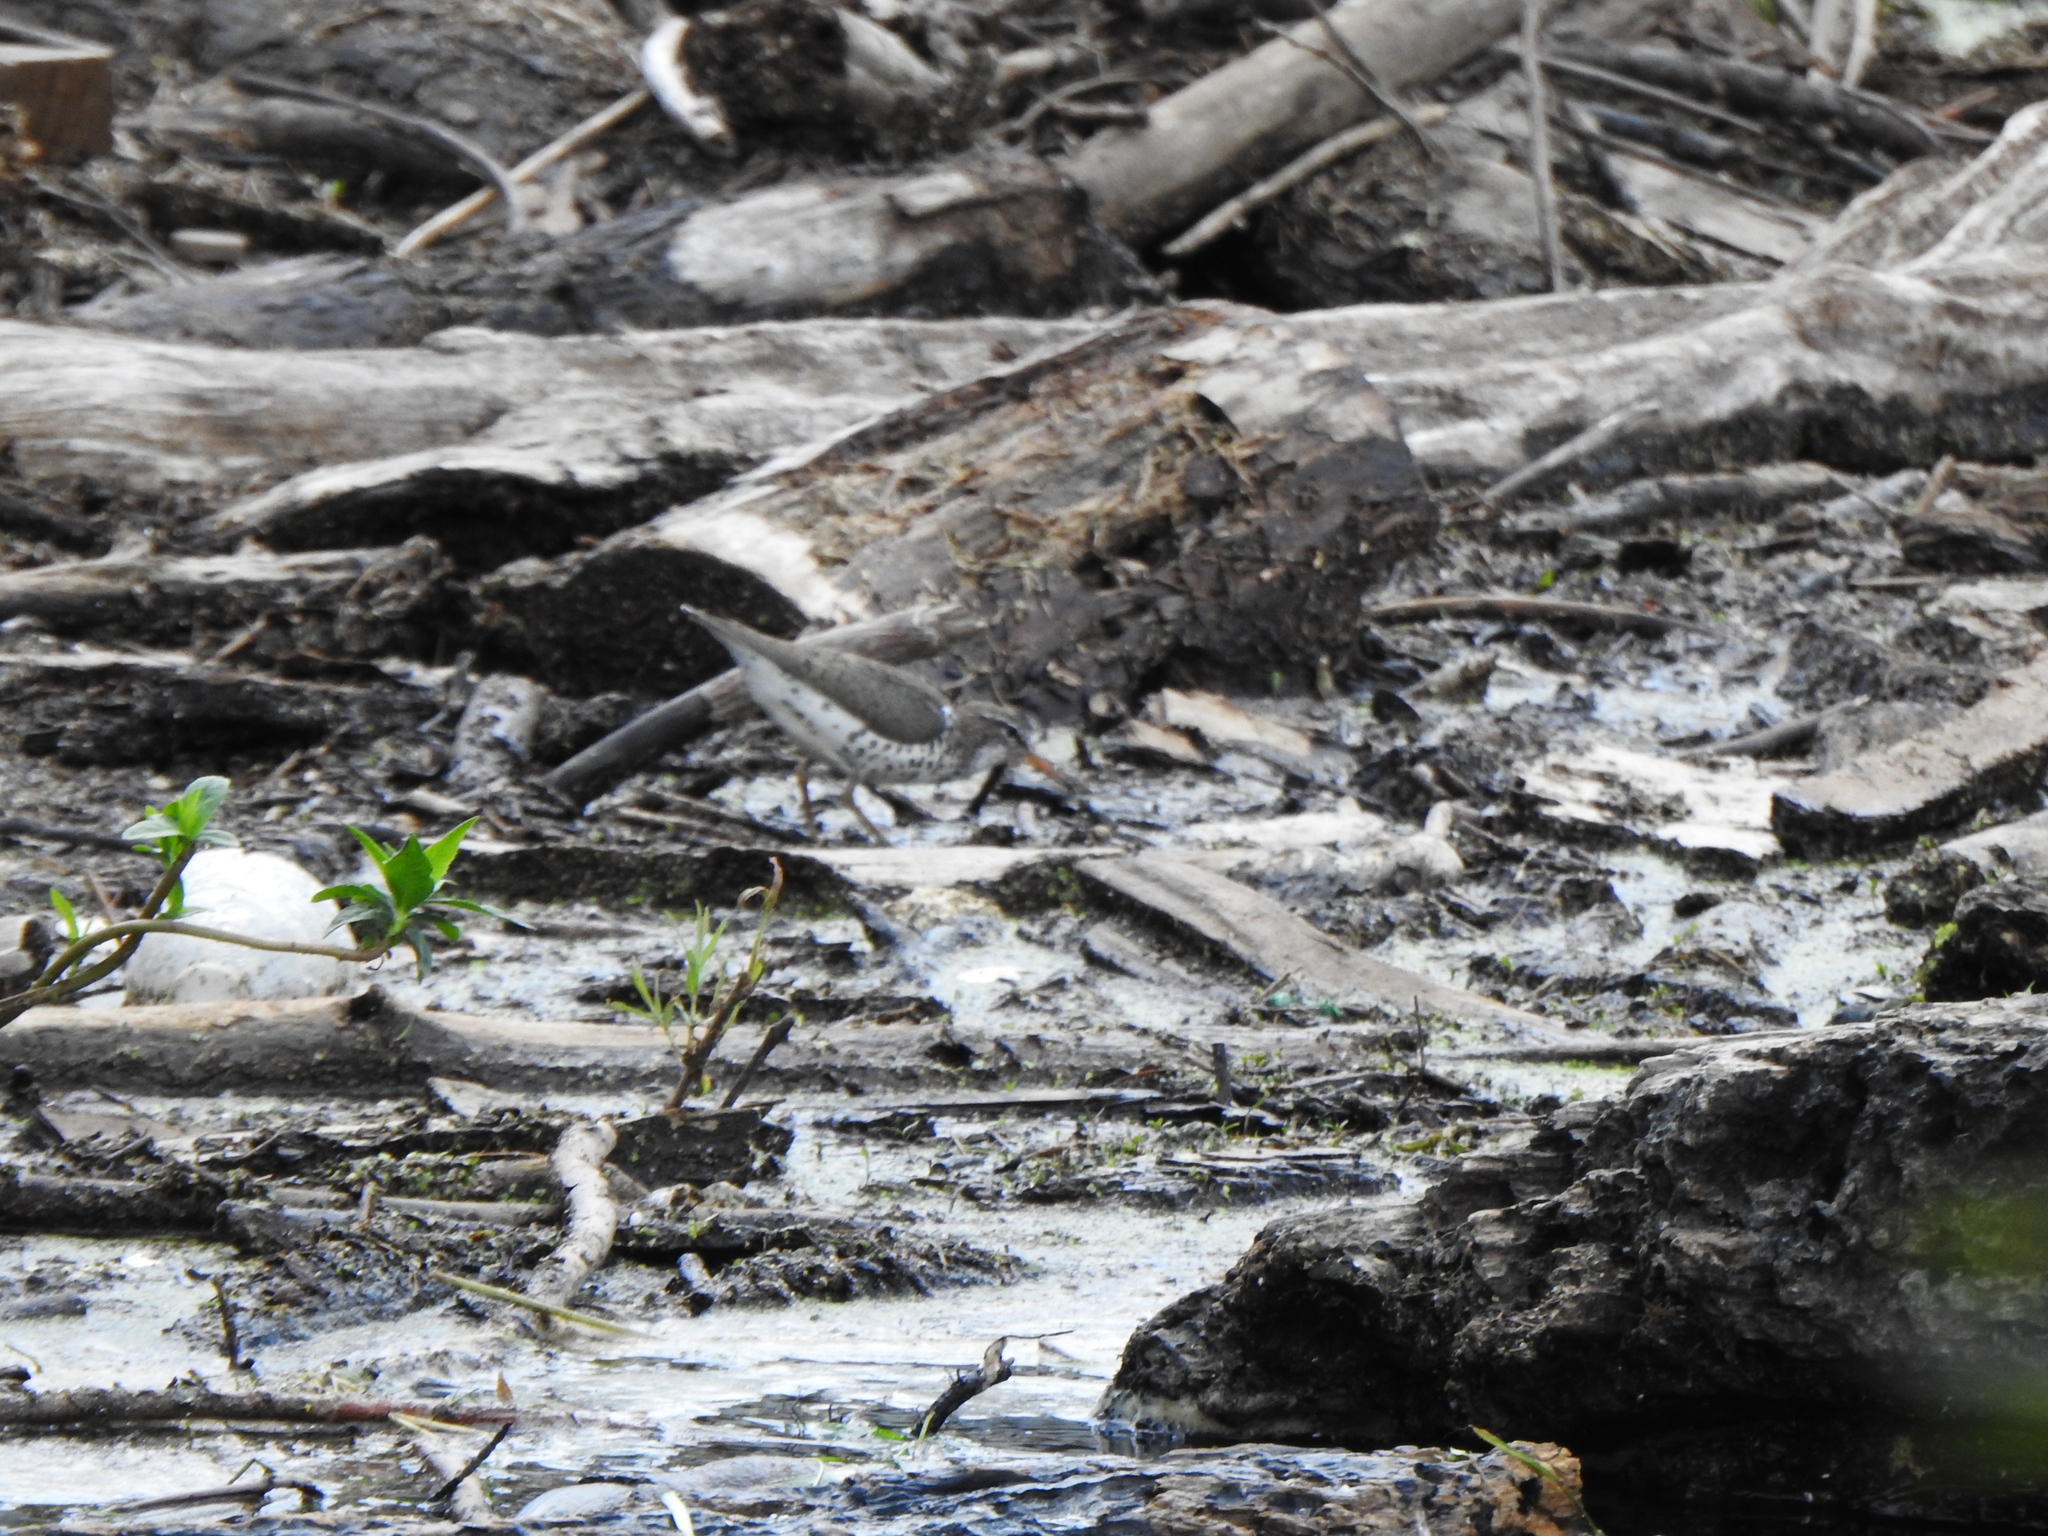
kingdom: Animalia
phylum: Chordata
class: Aves
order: Charadriiformes
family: Scolopacidae
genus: Actitis
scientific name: Actitis macularius
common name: Spotted sandpiper
